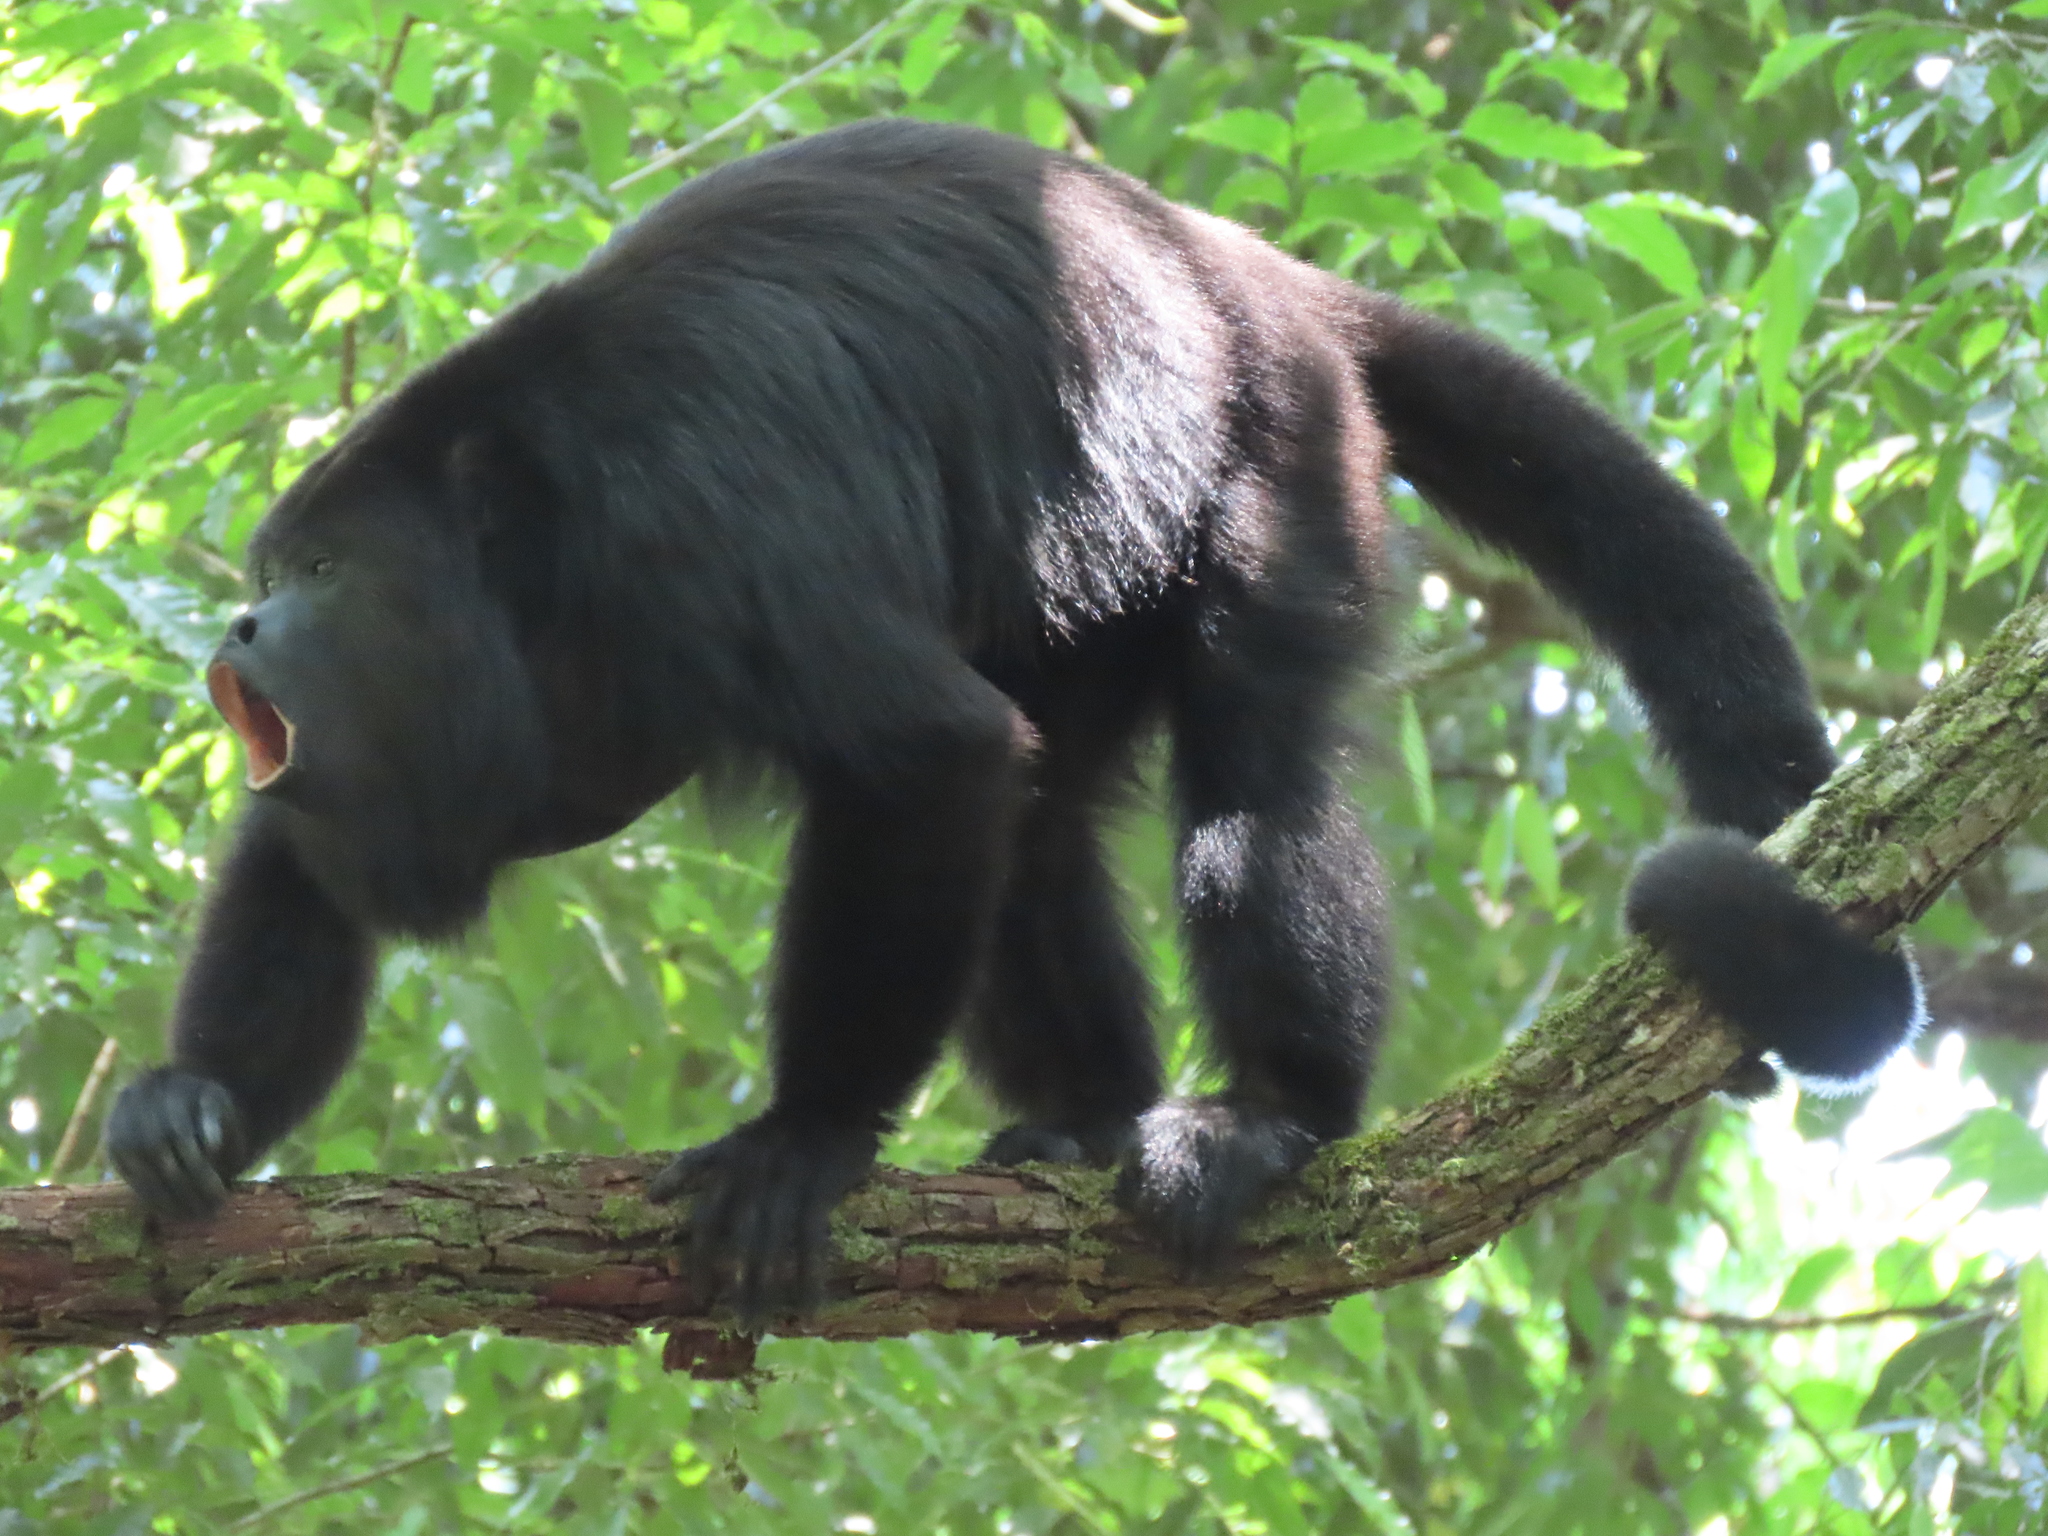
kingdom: Animalia
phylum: Chordata
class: Mammalia
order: Primates
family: Atelidae
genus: Alouatta
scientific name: Alouatta pigra
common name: Guatemalan black howler
